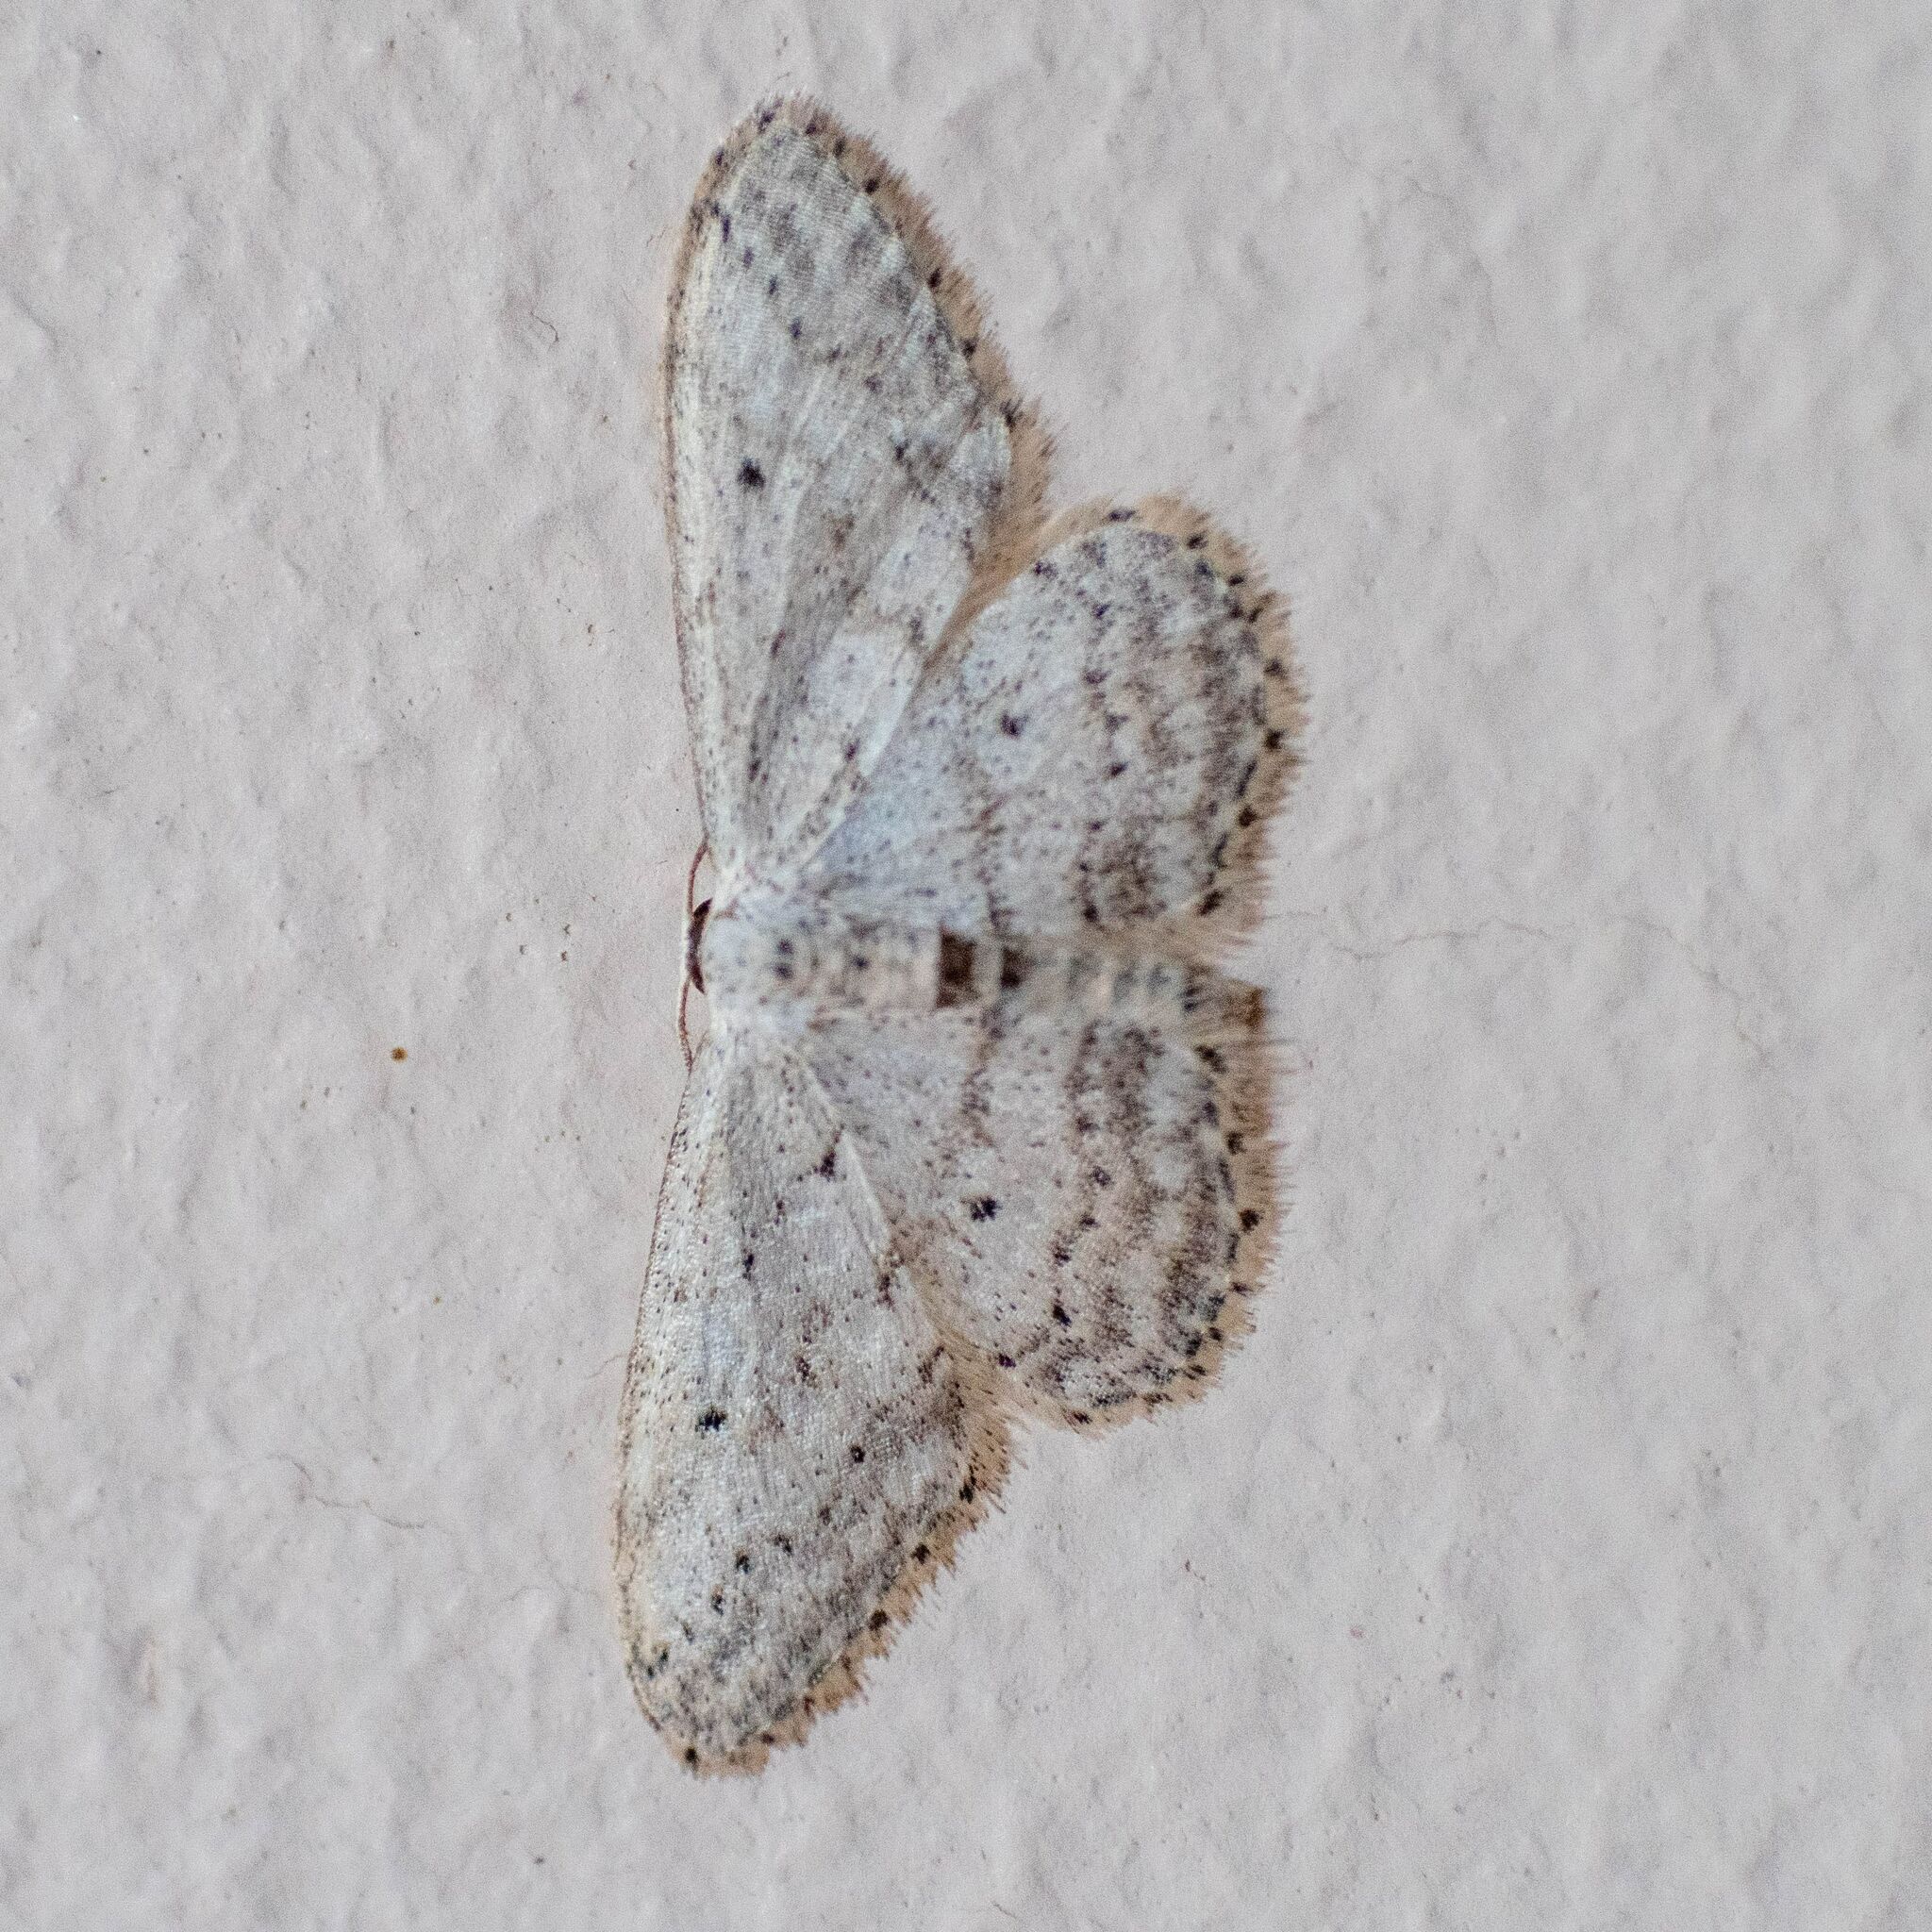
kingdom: Animalia
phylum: Arthropoda
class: Insecta
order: Lepidoptera
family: Geometridae
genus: Idaea
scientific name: Idaea seriata
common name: Small dusty wave
